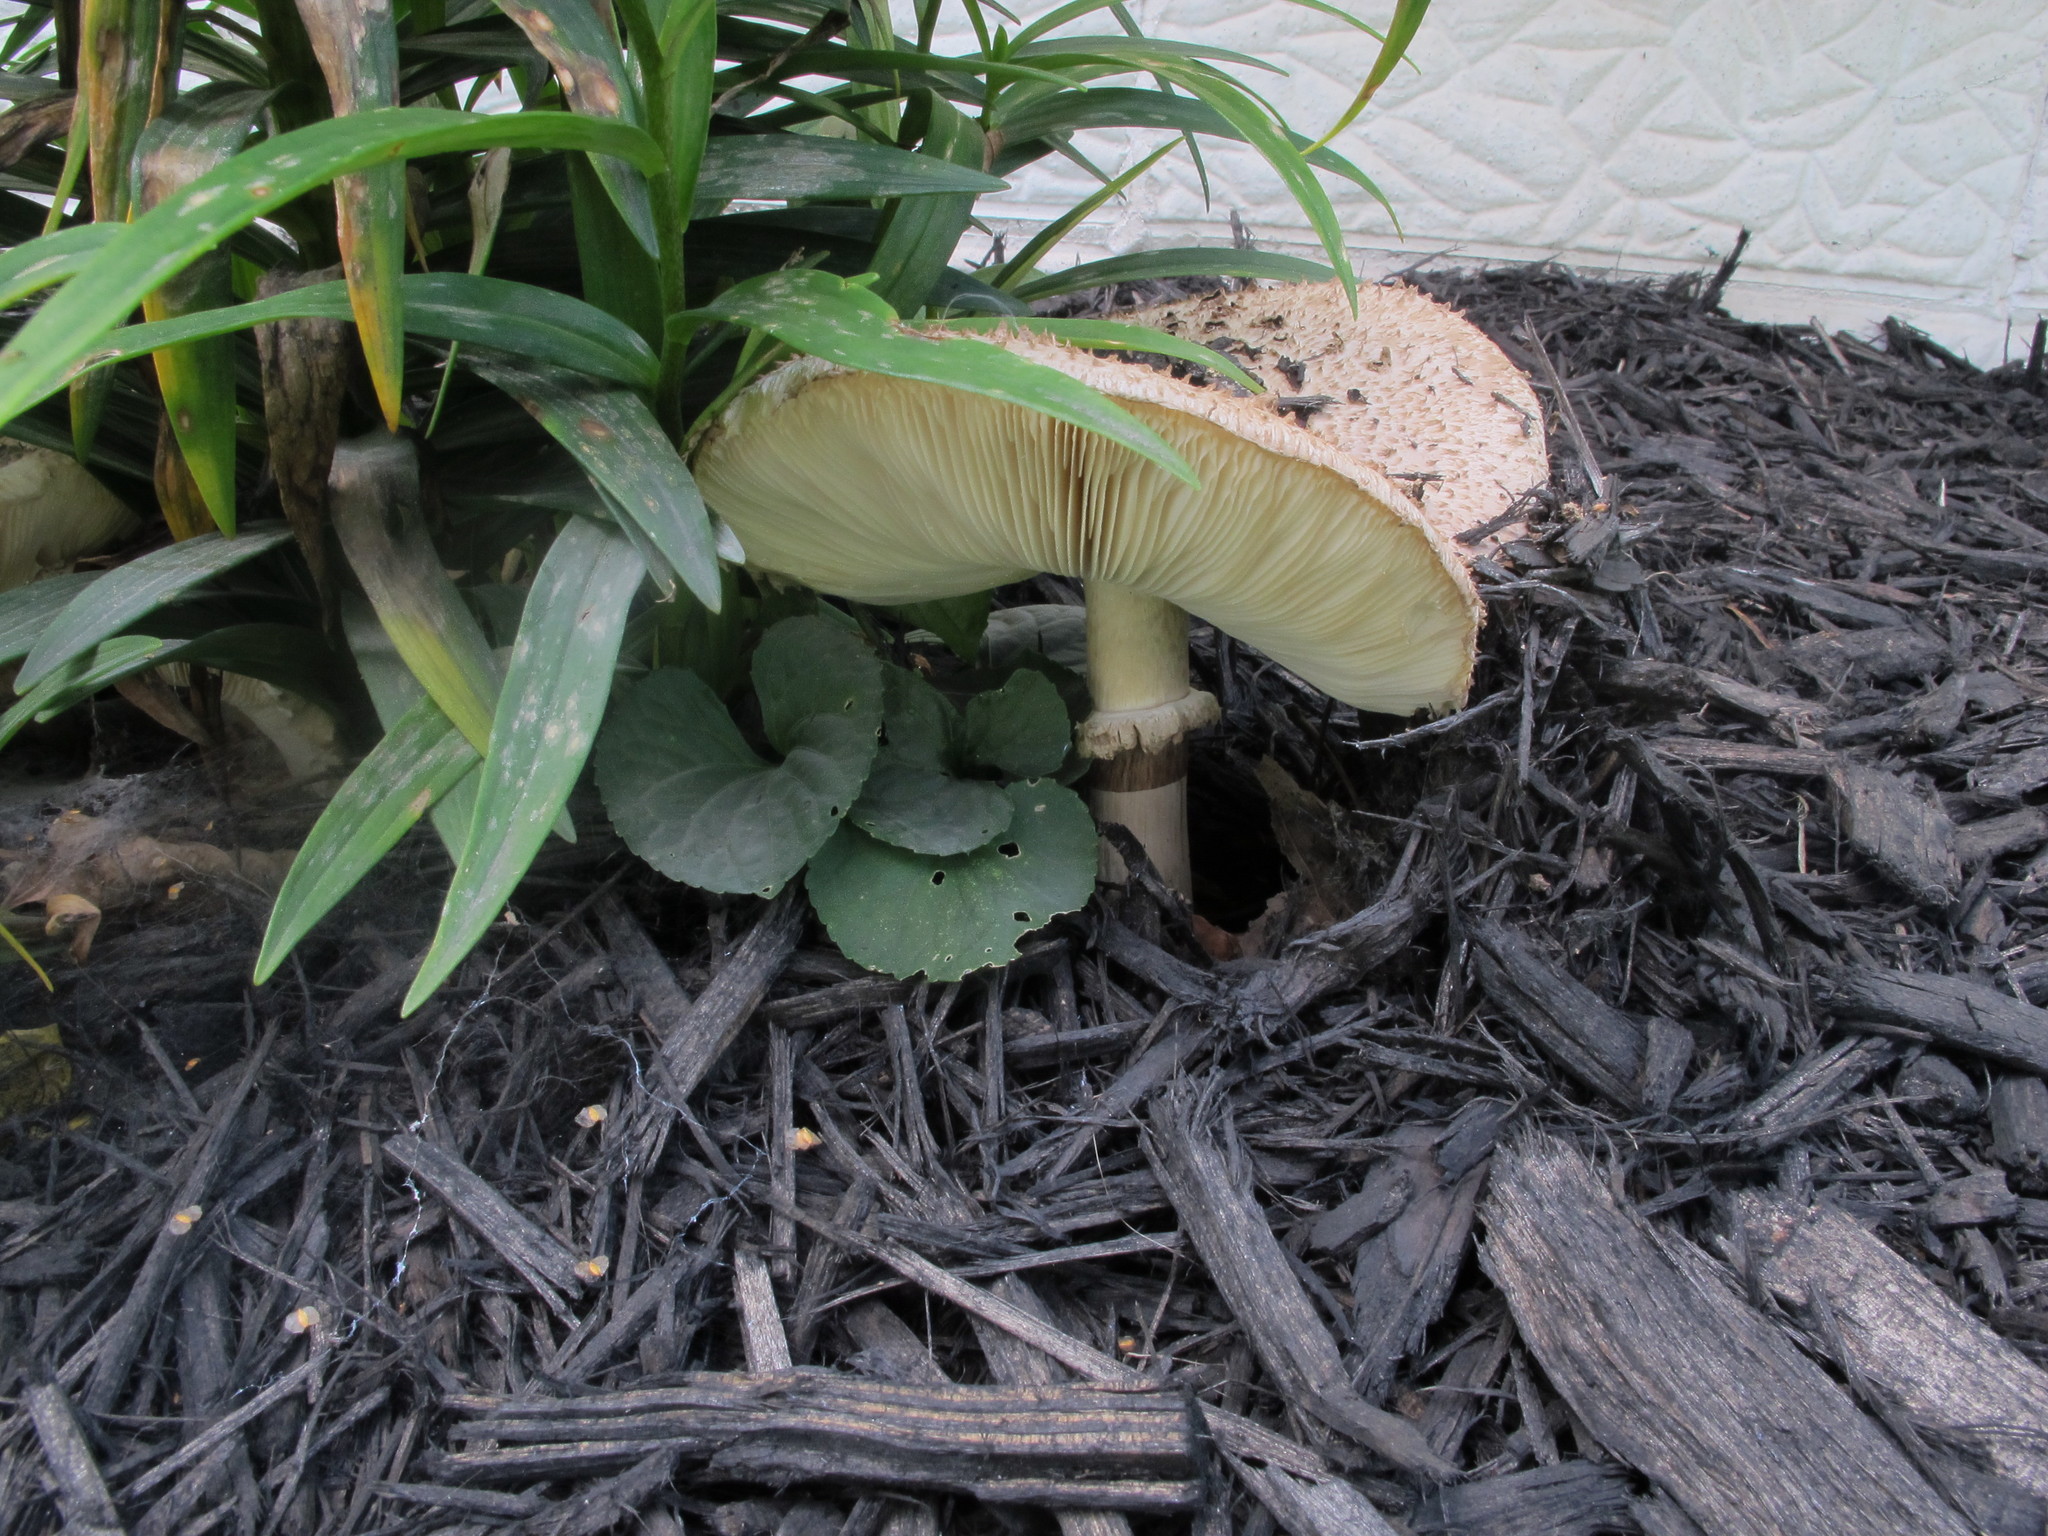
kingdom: Fungi
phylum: Basidiomycota
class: Agaricomycetes
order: Agaricales
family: Agaricaceae
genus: Chlorophyllum
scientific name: Chlorophyllum rhacodes
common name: Shaggy parasol
